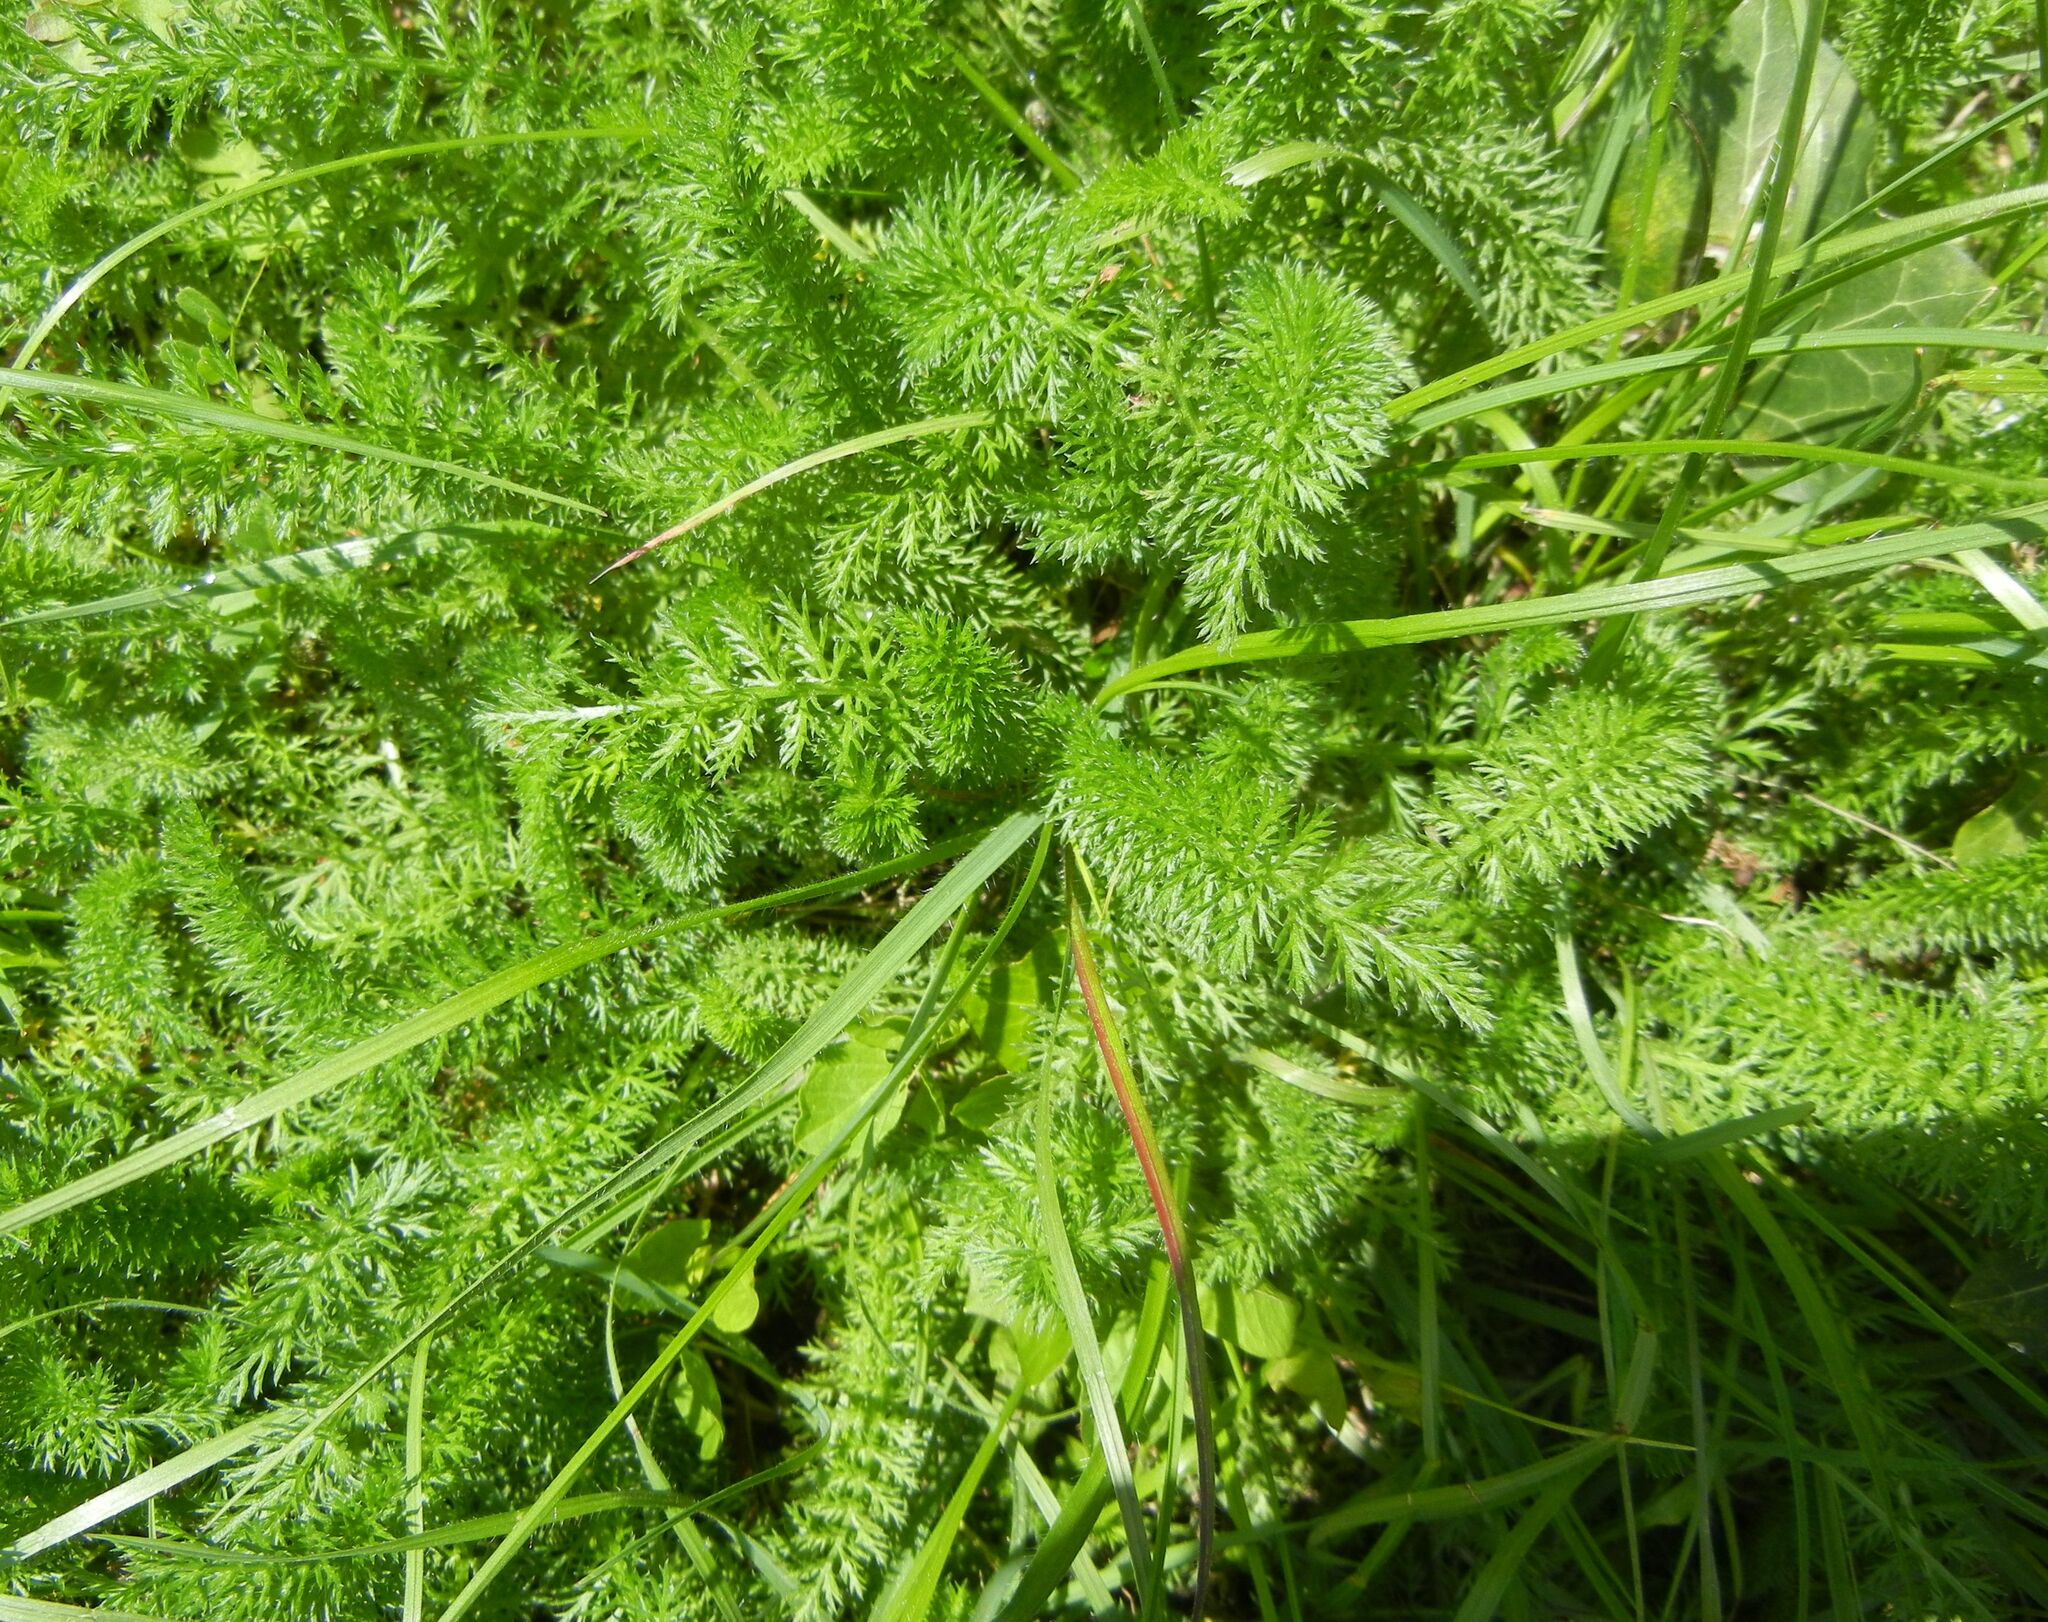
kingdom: Plantae
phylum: Tracheophyta
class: Magnoliopsida
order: Asterales
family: Asteraceae
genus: Achillea
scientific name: Achillea millefolium
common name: Yarrow
